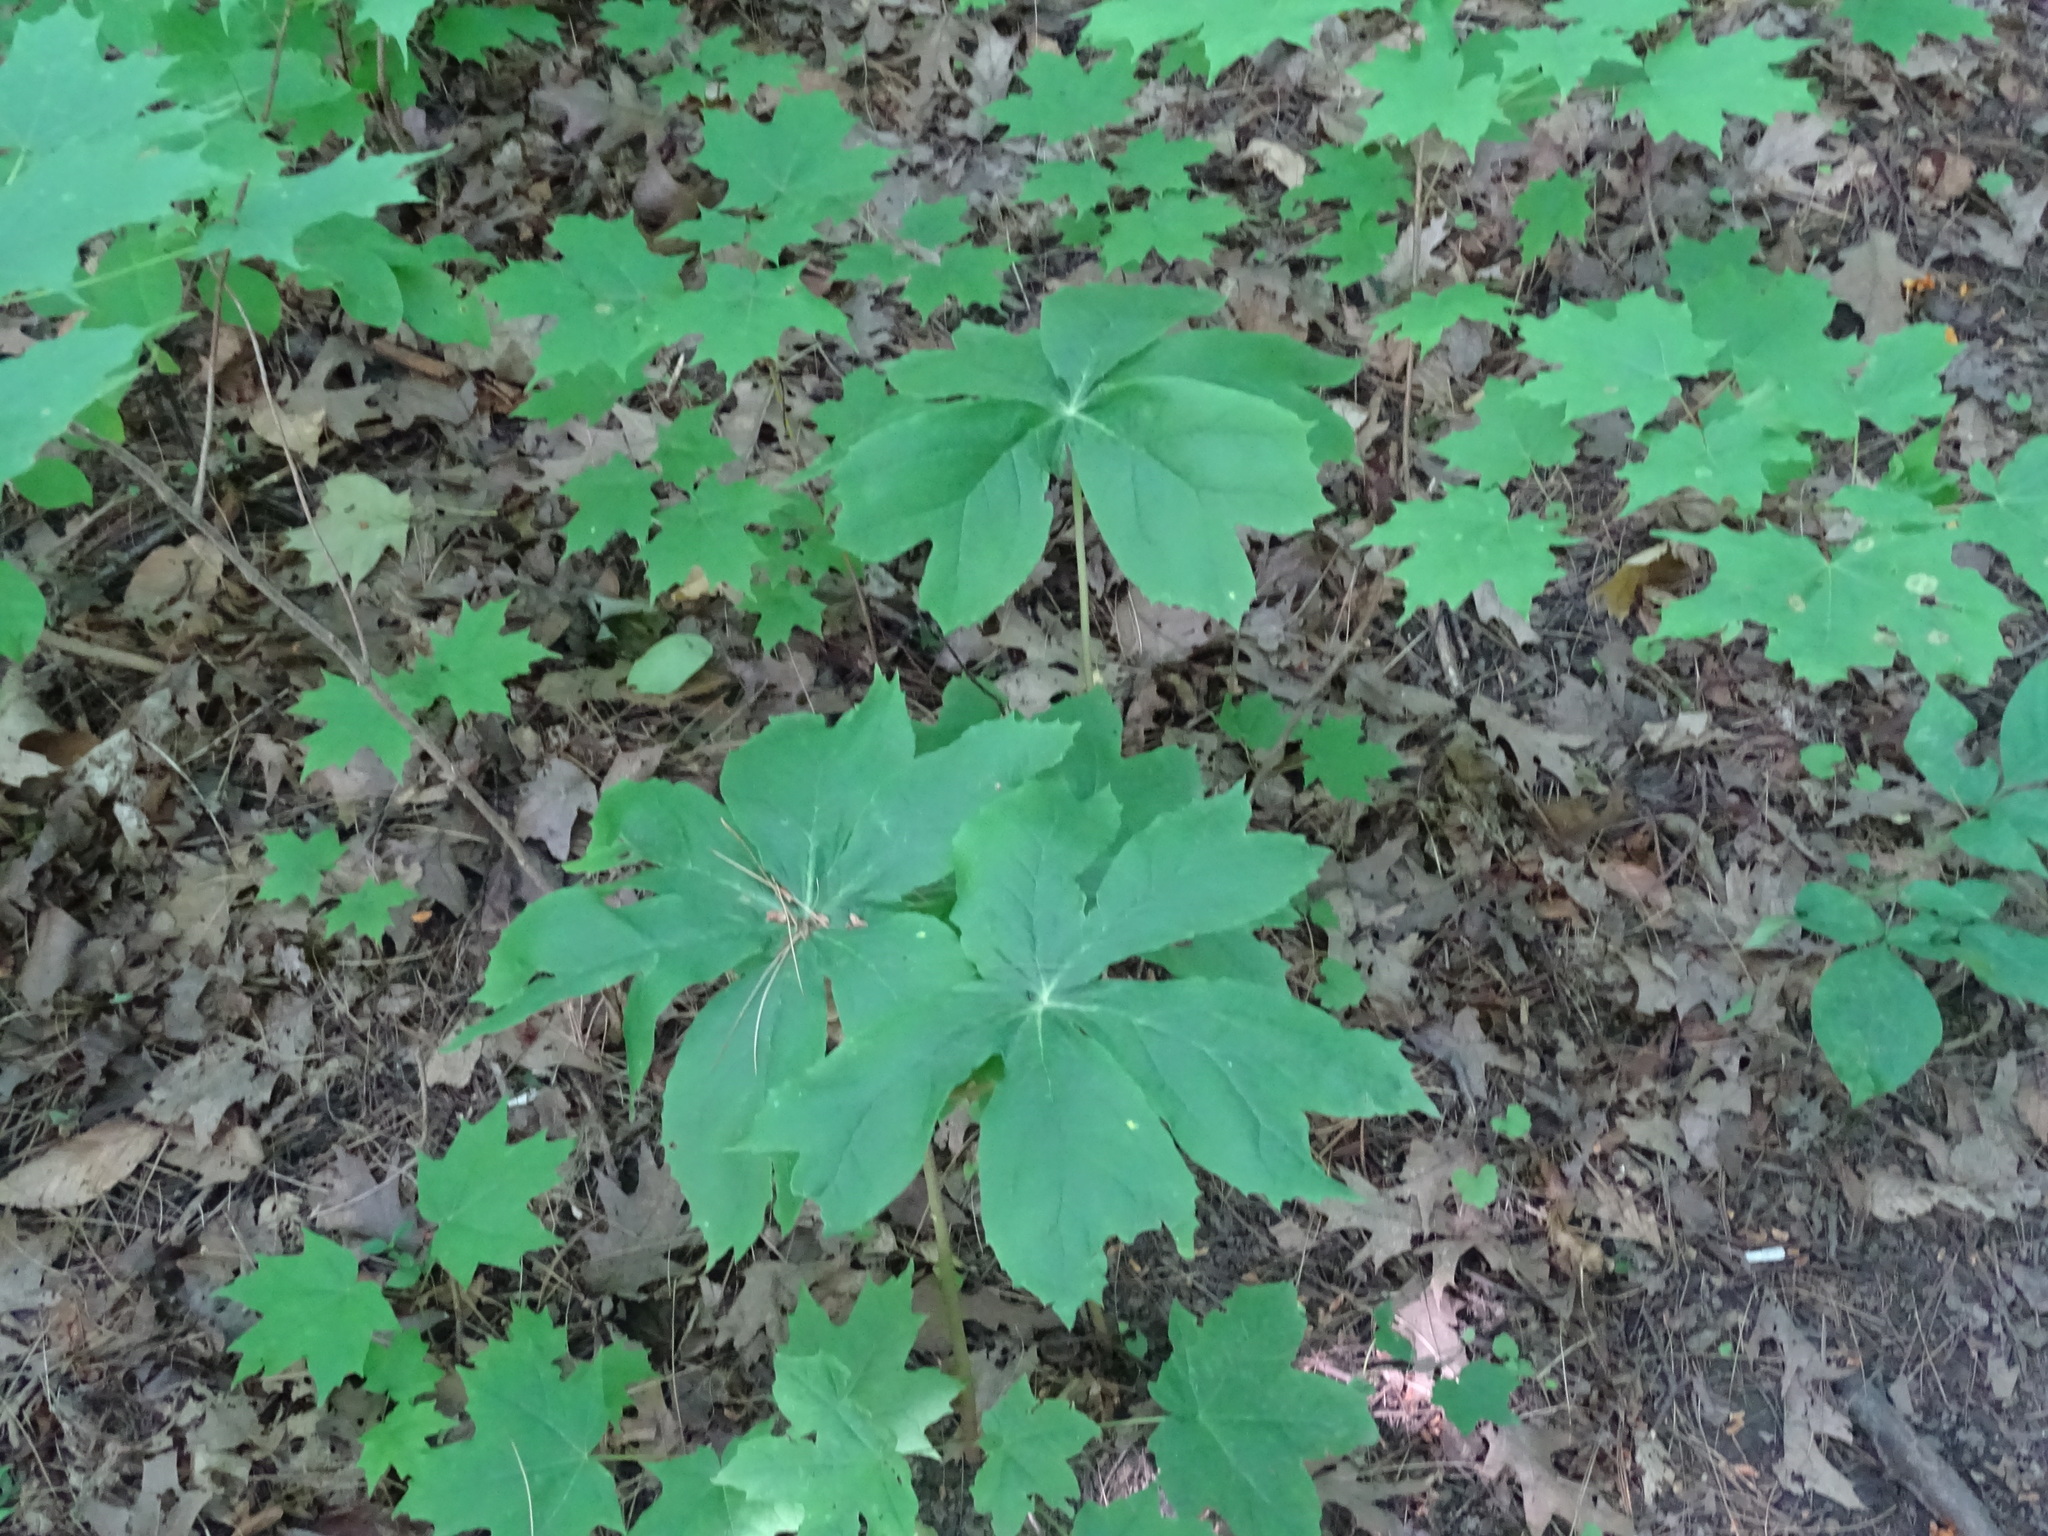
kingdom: Plantae
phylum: Tracheophyta
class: Magnoliopsida
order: Ranunculales
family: Berberidaceae
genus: Podophyllum
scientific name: Podophyllum peltatum
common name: Wild mandrake
